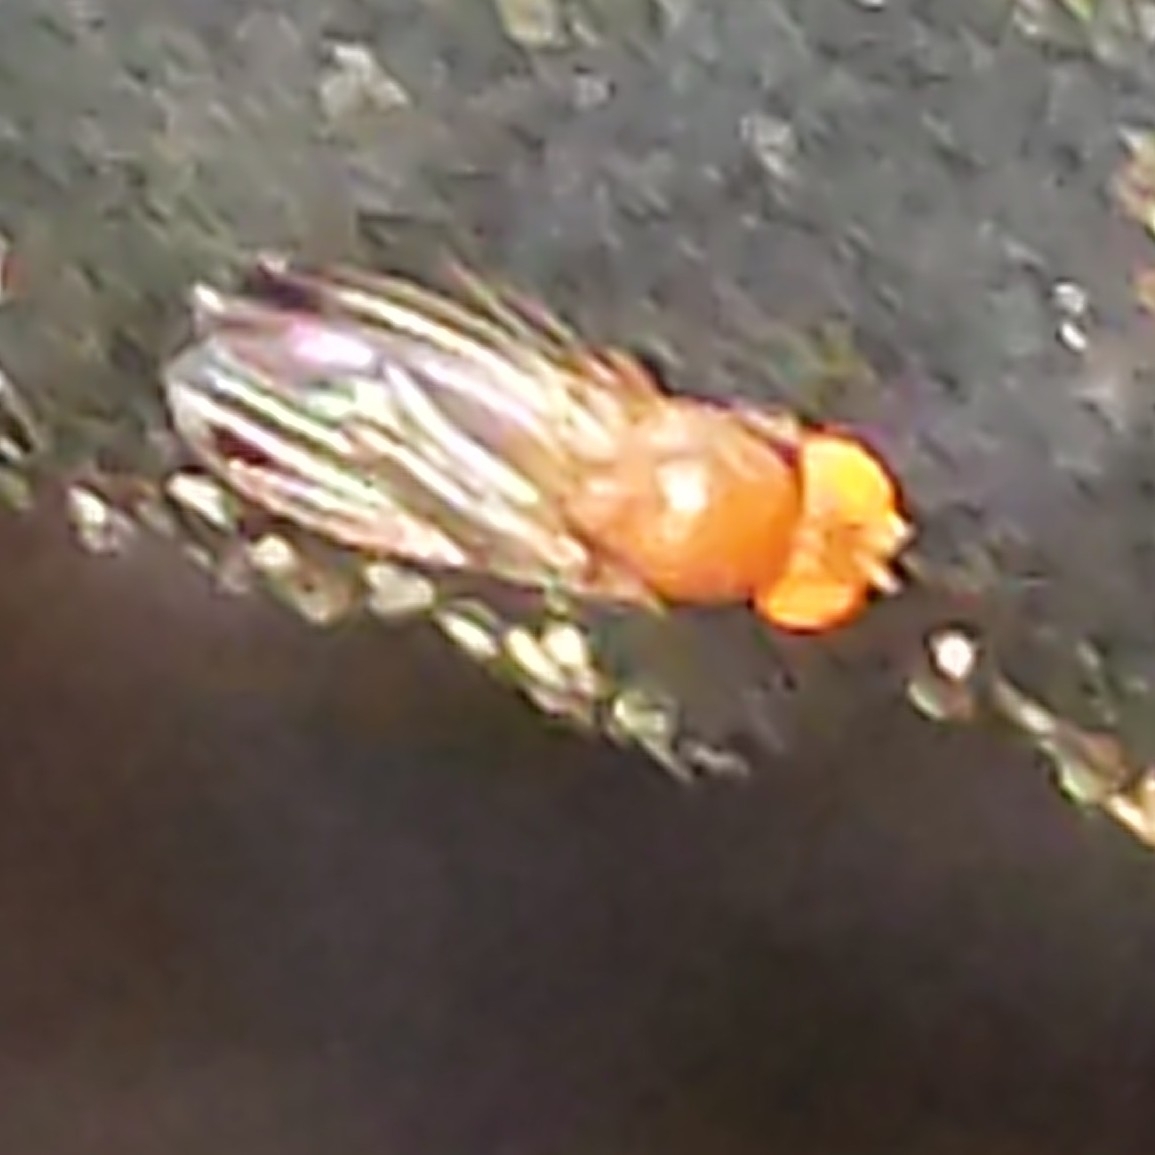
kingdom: Animalia
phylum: Arthropoda
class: Insecta
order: Diptera
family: Drosophilidae
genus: Drosophila
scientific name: Drosophila suzukii
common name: Spotted-wing drosophila
